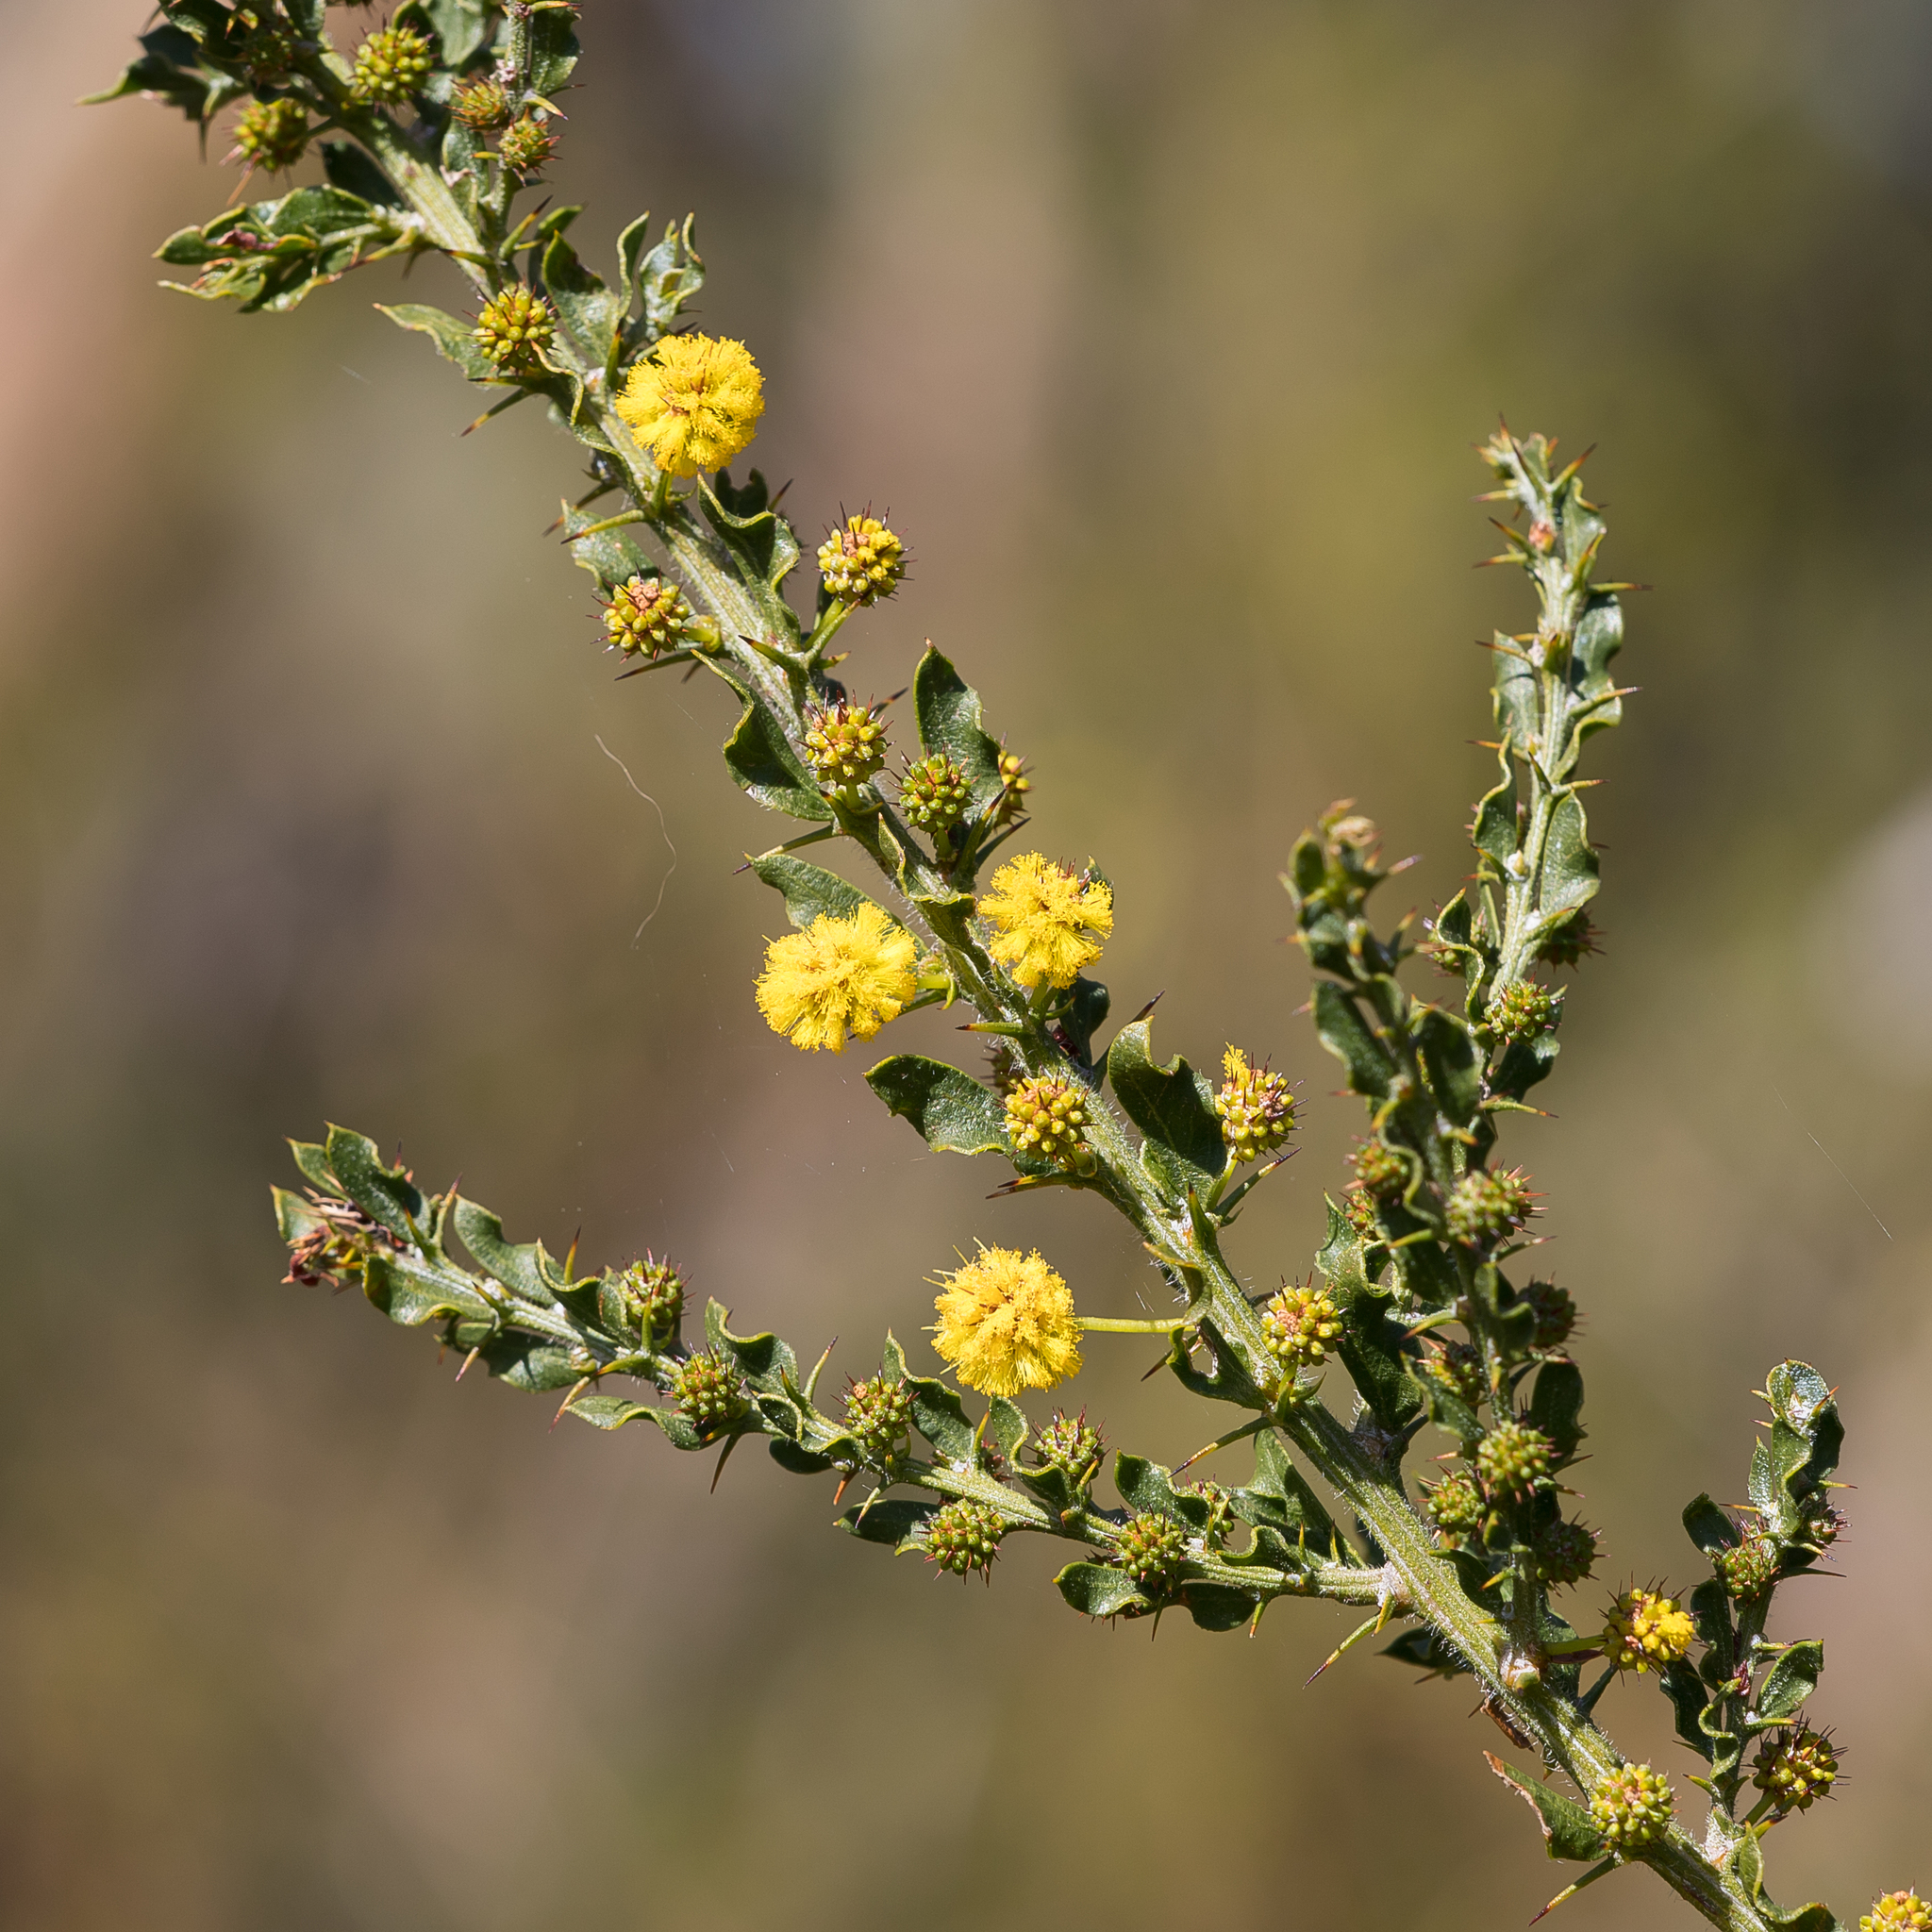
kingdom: Plantae
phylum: Tracheophyta
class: Magnoliopsida
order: Fabales
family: Fabaceae
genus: Acacia
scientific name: Acacia paradoxa
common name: Paradox acacia
